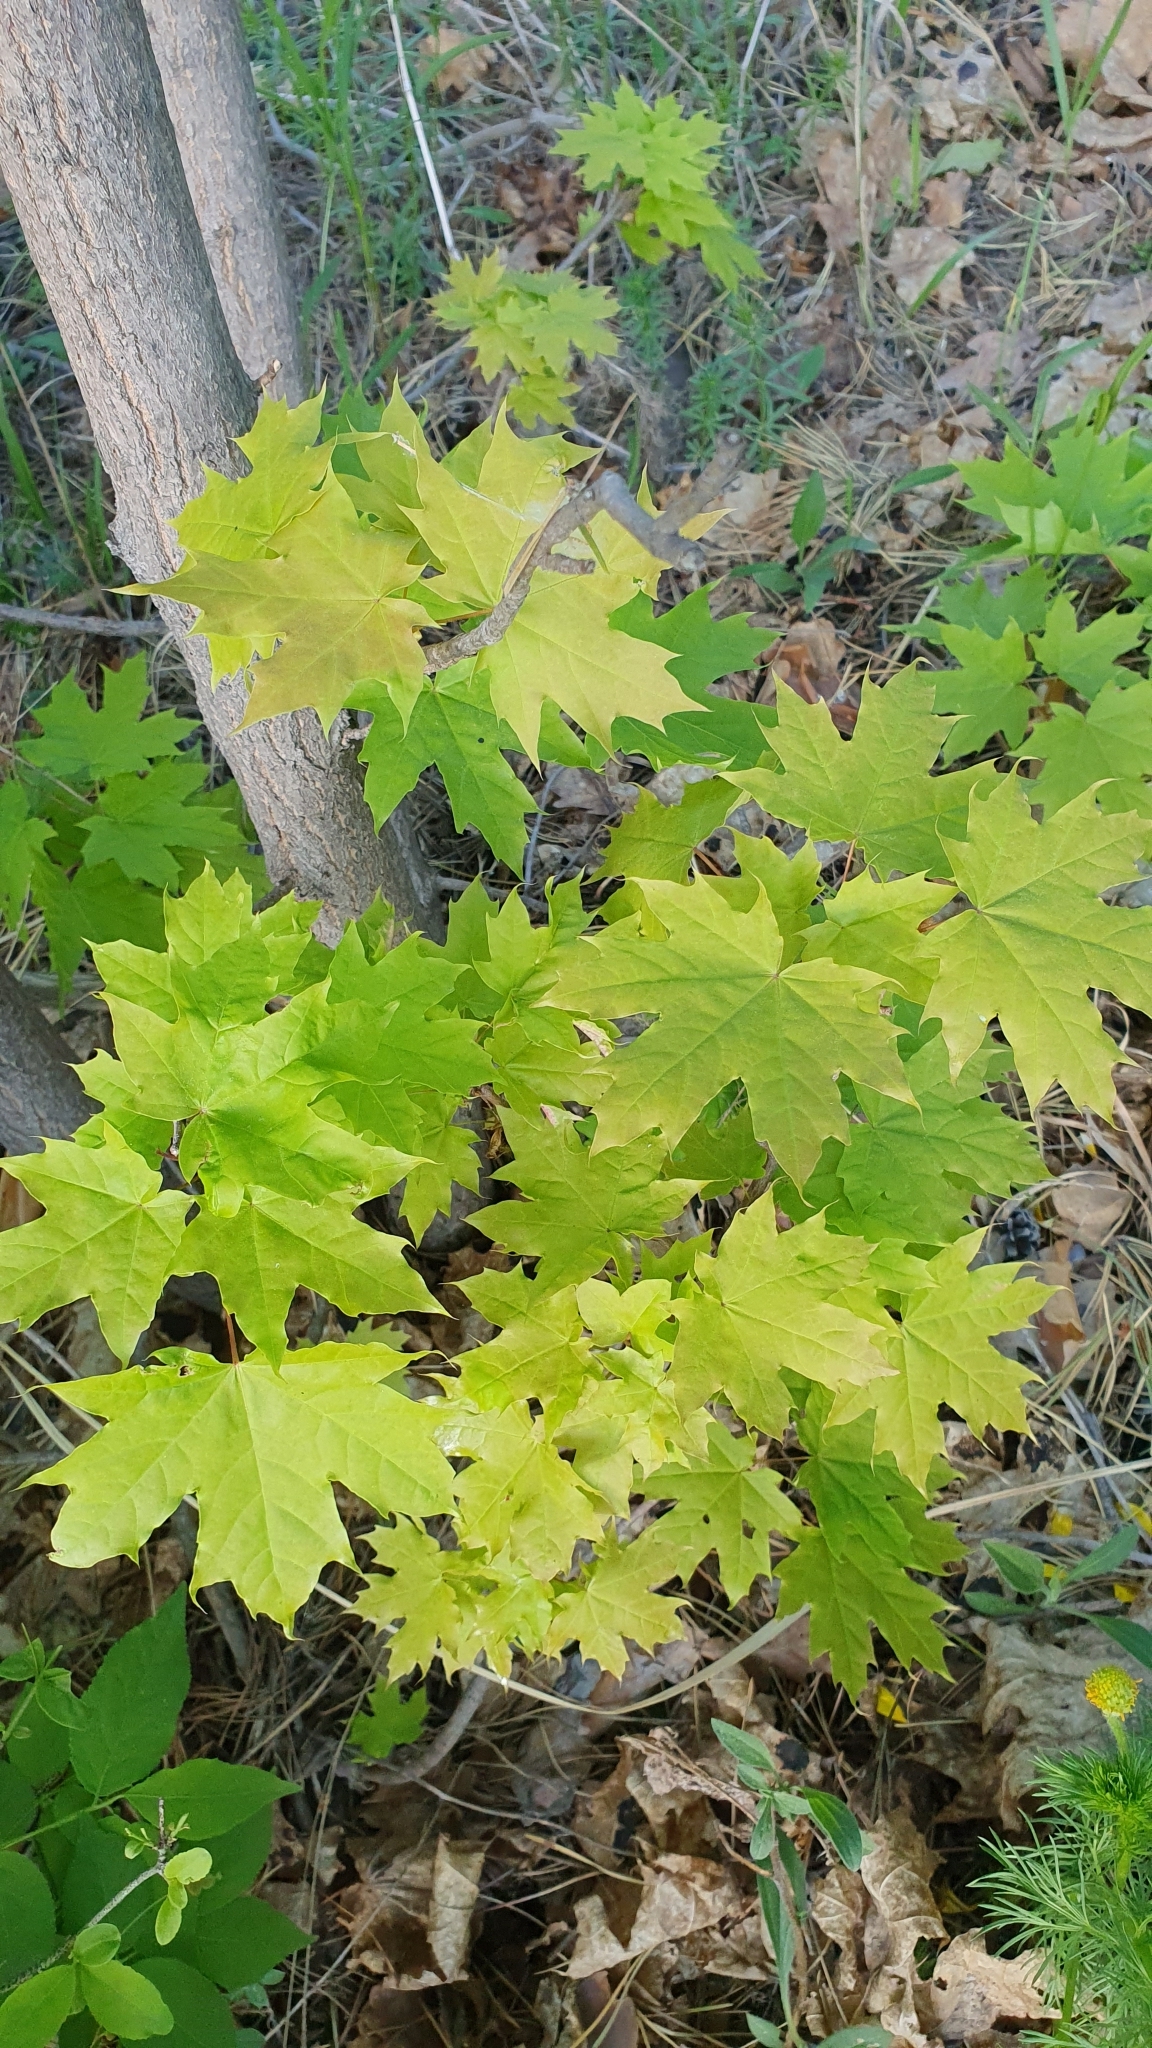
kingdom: Plantae
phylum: Tracheophyta
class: Magnoliopsida
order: Sapindales
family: Sapindaceae
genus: Acer
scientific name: Acer platanoides
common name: Norway maple
